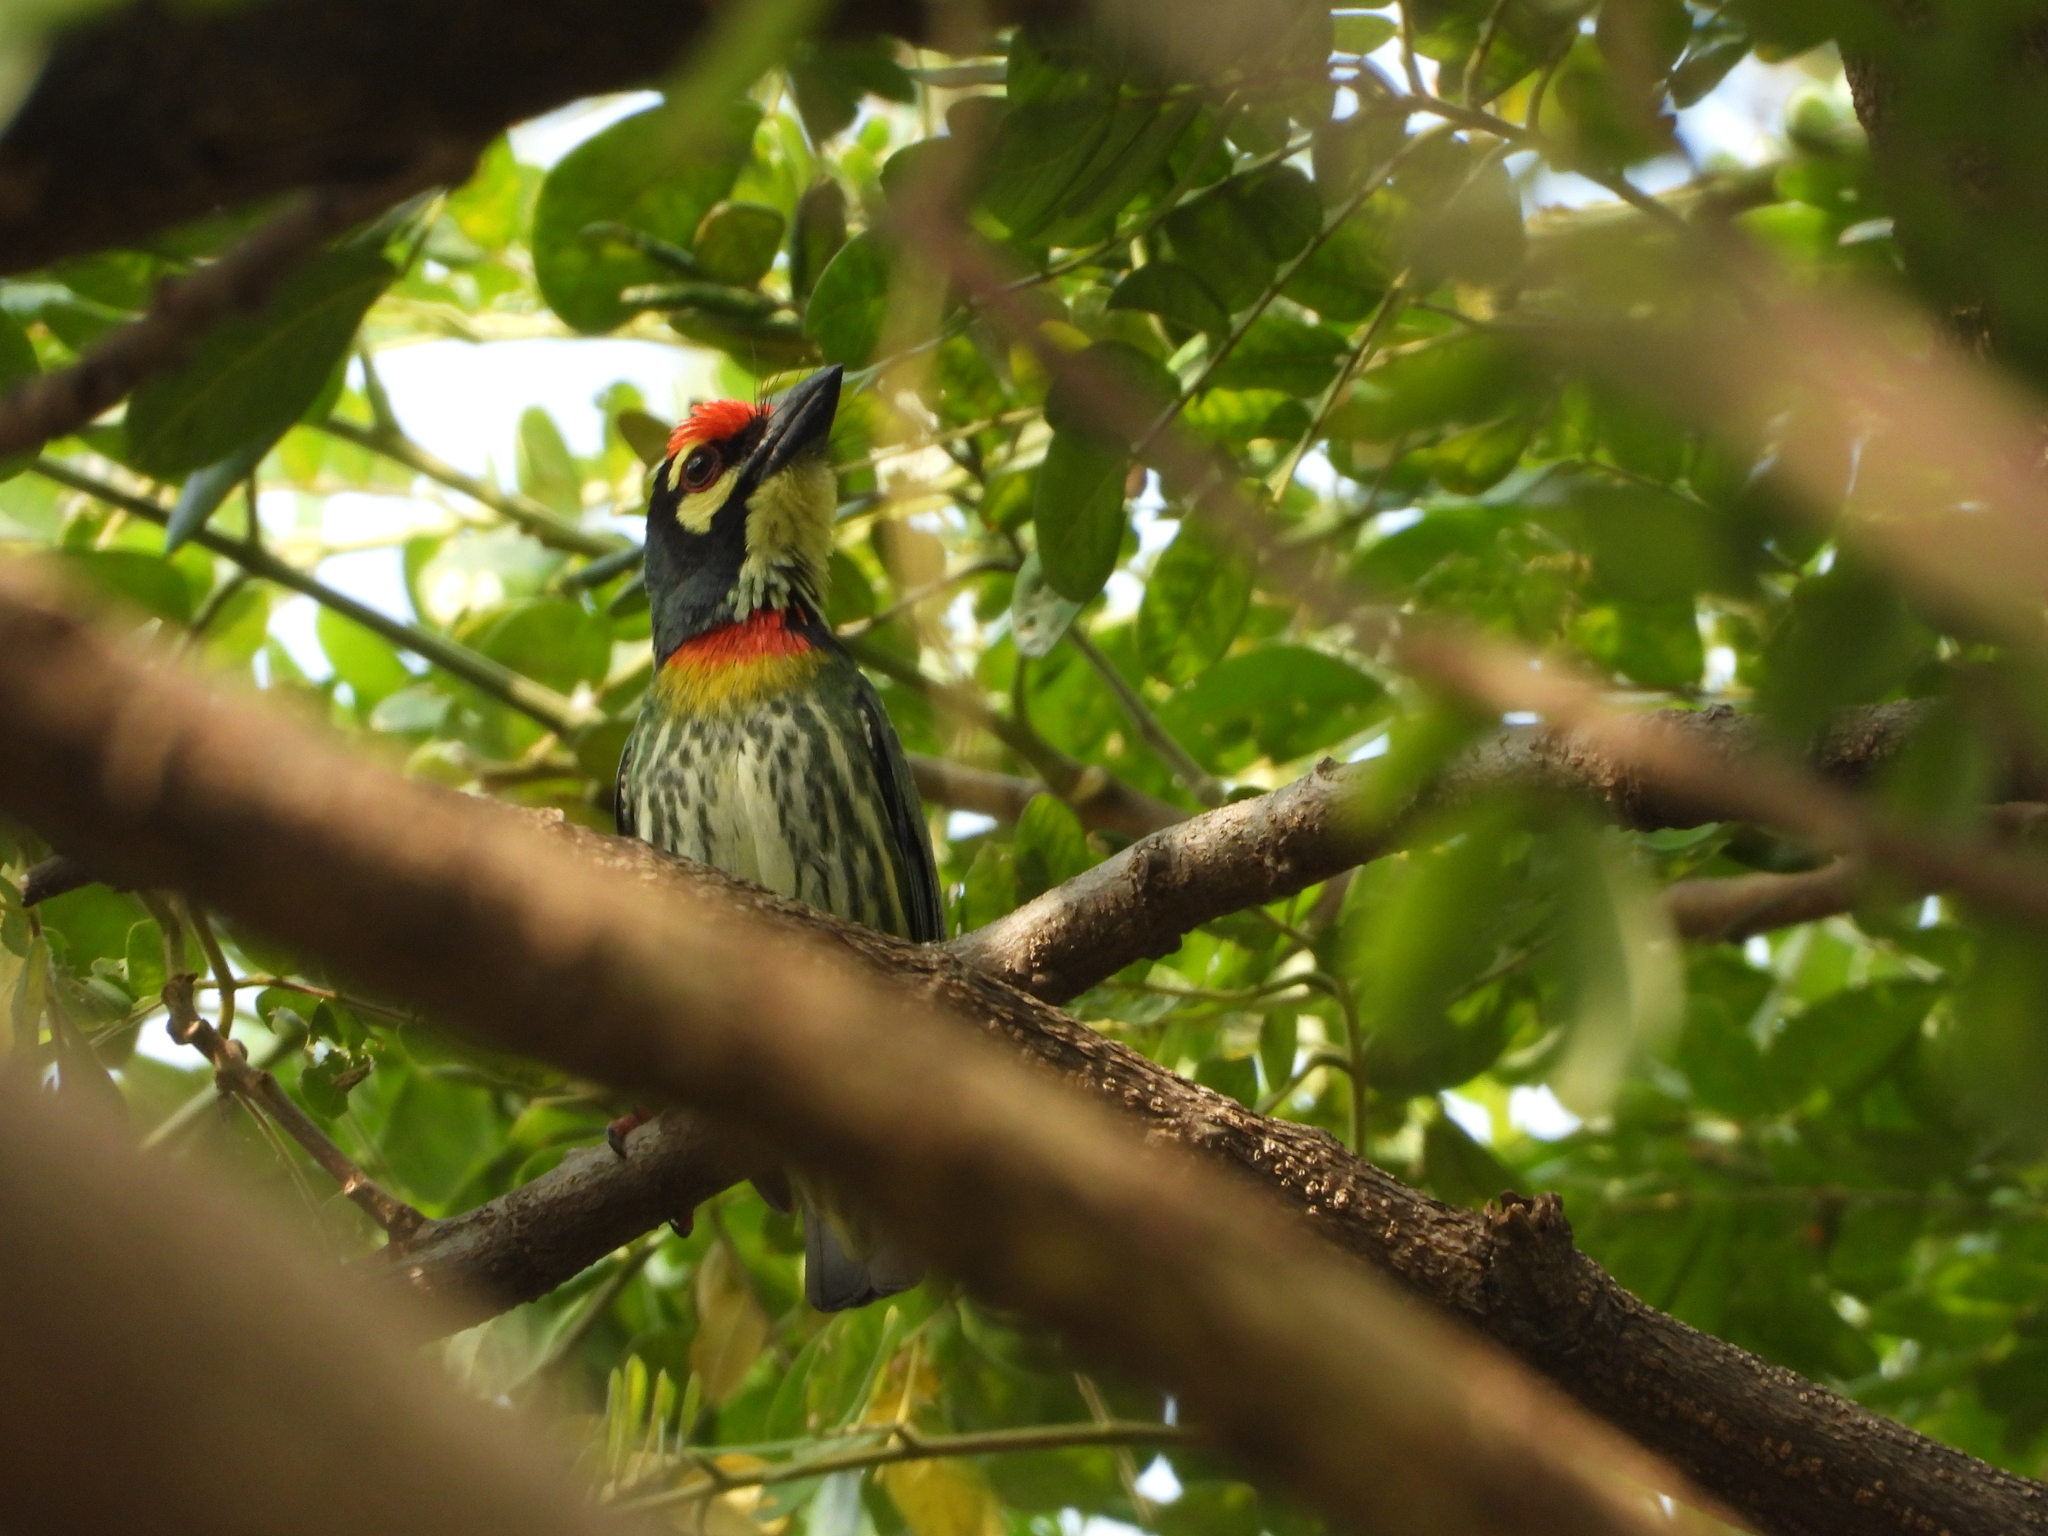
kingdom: Animalia
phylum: Chordata
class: Aves
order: Piciformes
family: Megalaimidae
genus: Psilopogon
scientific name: Psilopogon haemacephalus
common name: Coppersmith barbet
